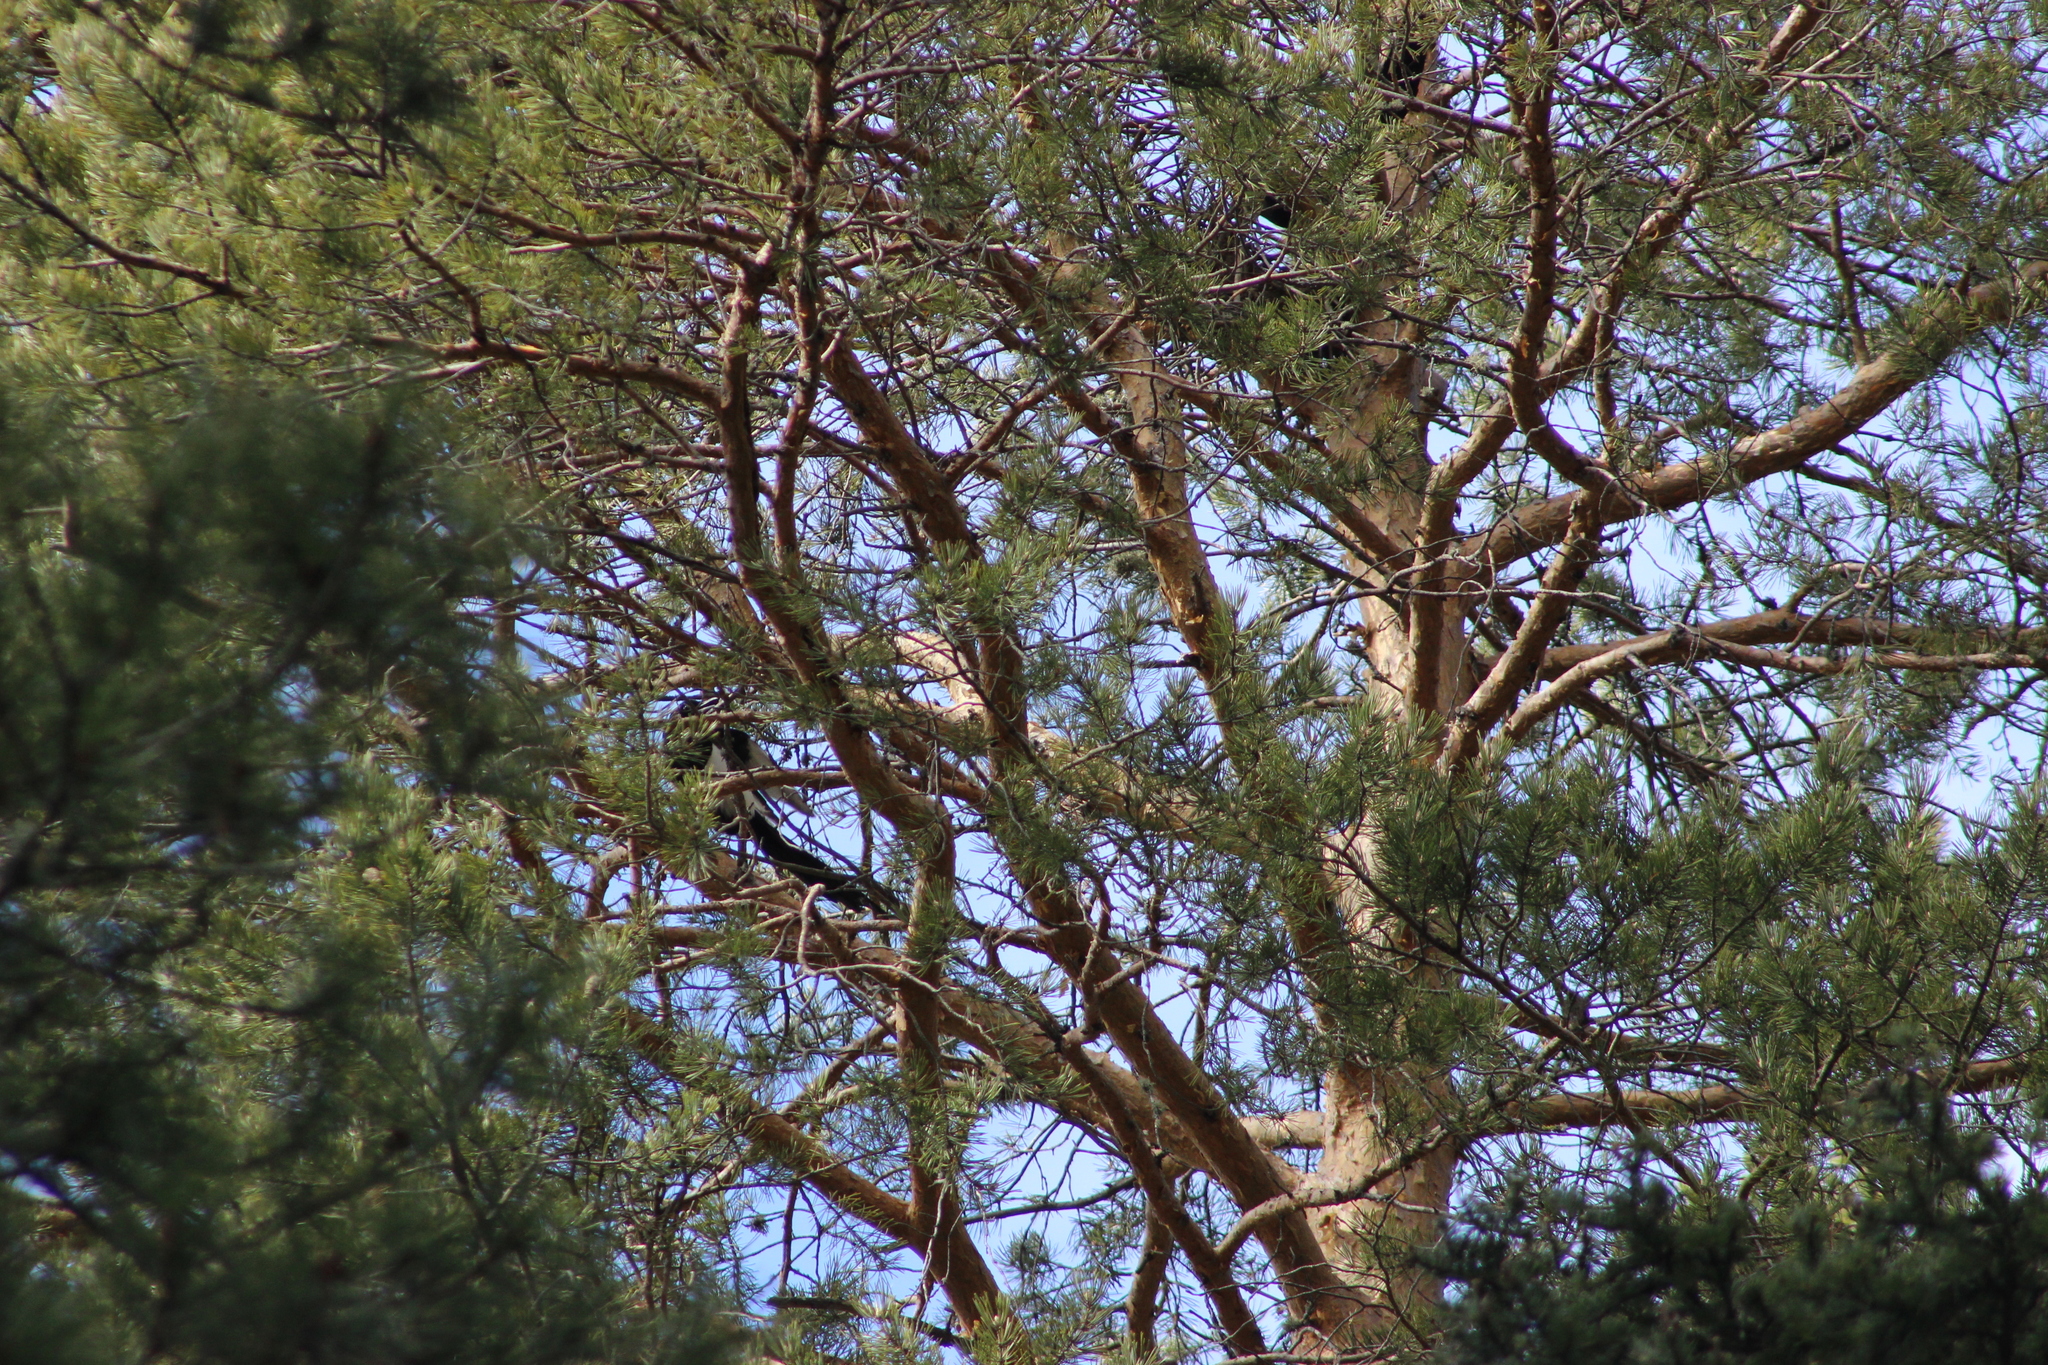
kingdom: Animalia
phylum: Chordata
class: Aves
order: Passeriformes
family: Corvidae
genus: Pica
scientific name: Pica pica
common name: Eurasian magpie
